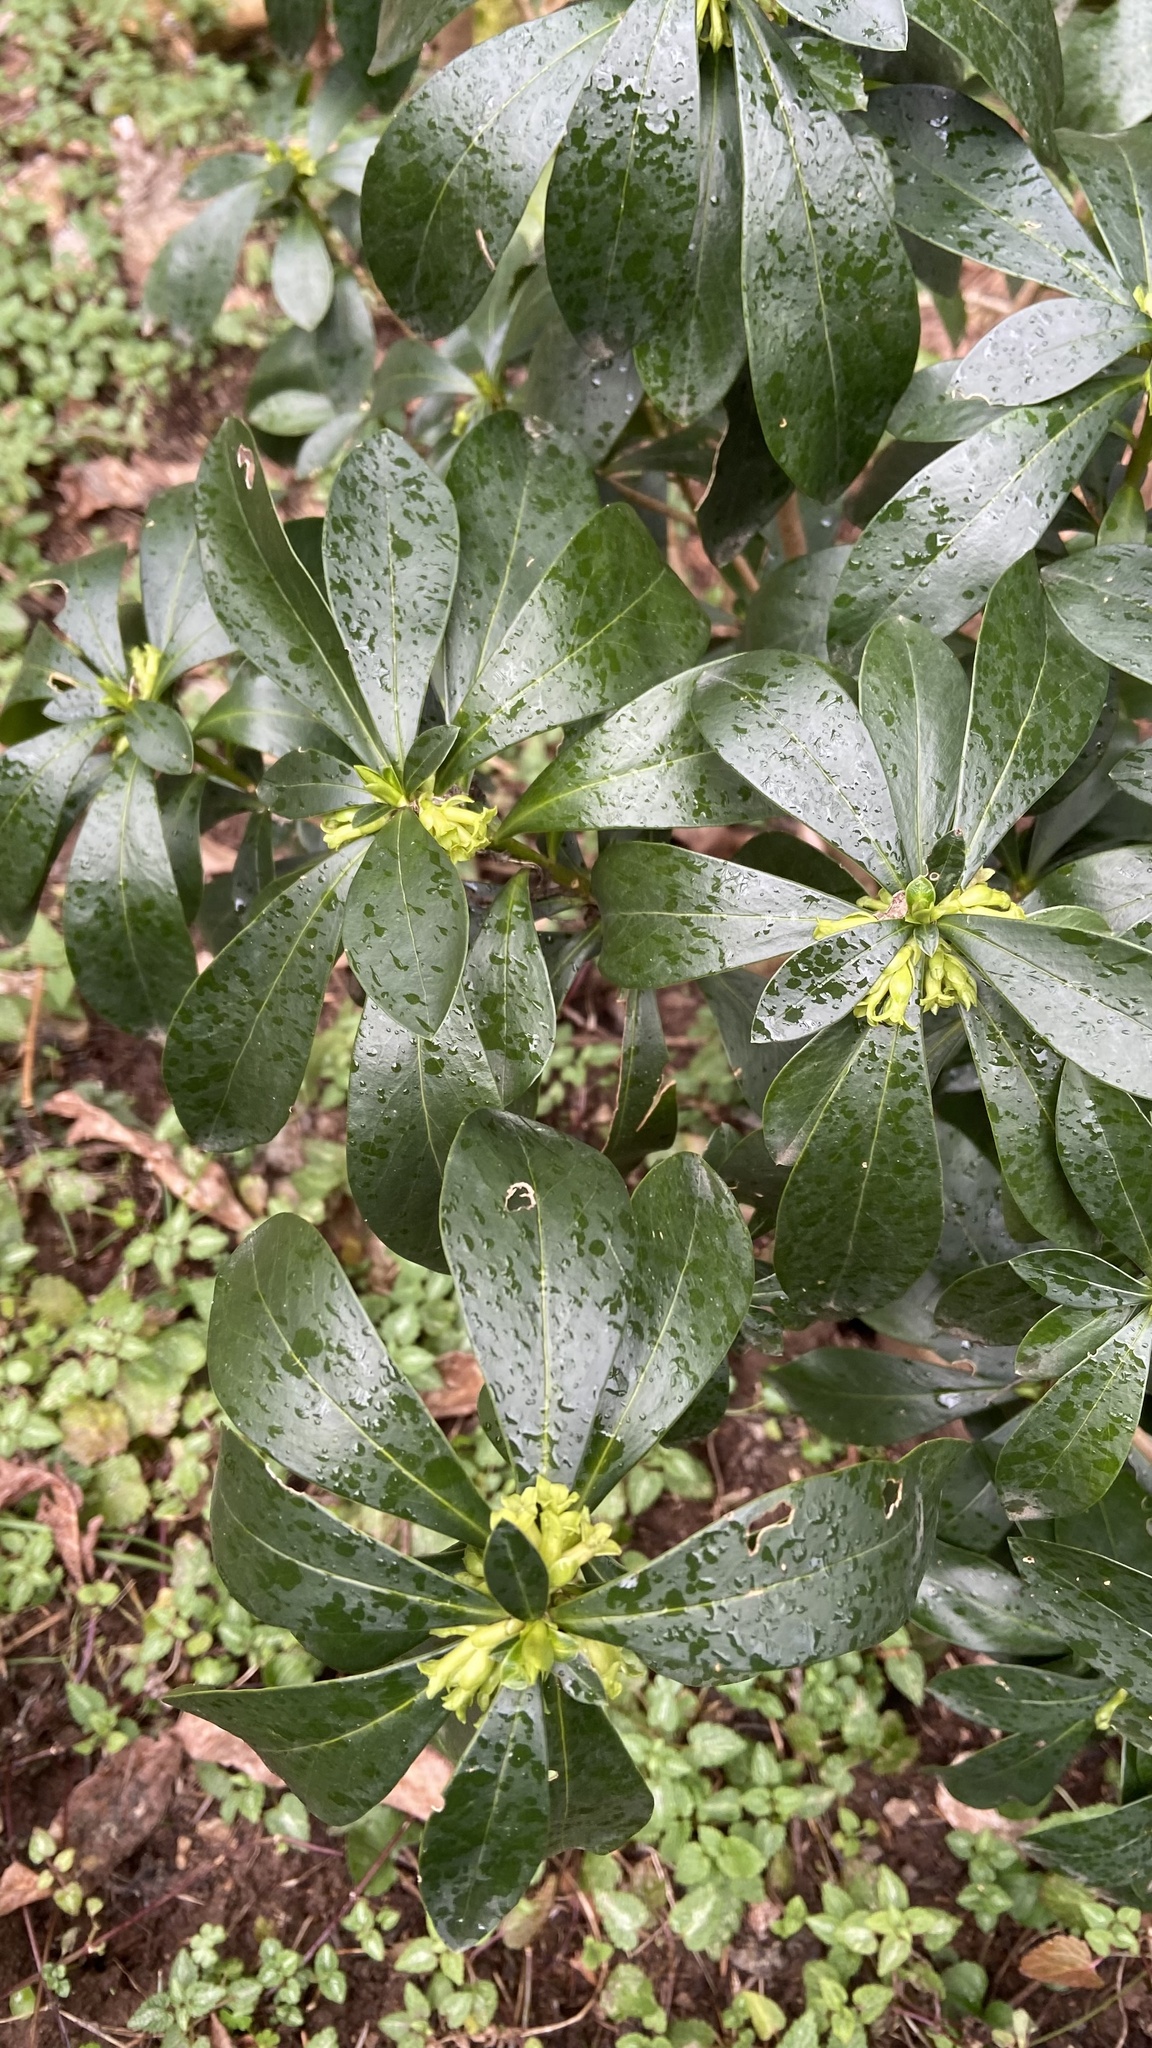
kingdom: Plantae
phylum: Tracheophyta
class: Magnoliopsida
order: Malvales
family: Thymelaeaceae
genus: Daphne
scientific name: Daphne laureola
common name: Spurge-laurel
